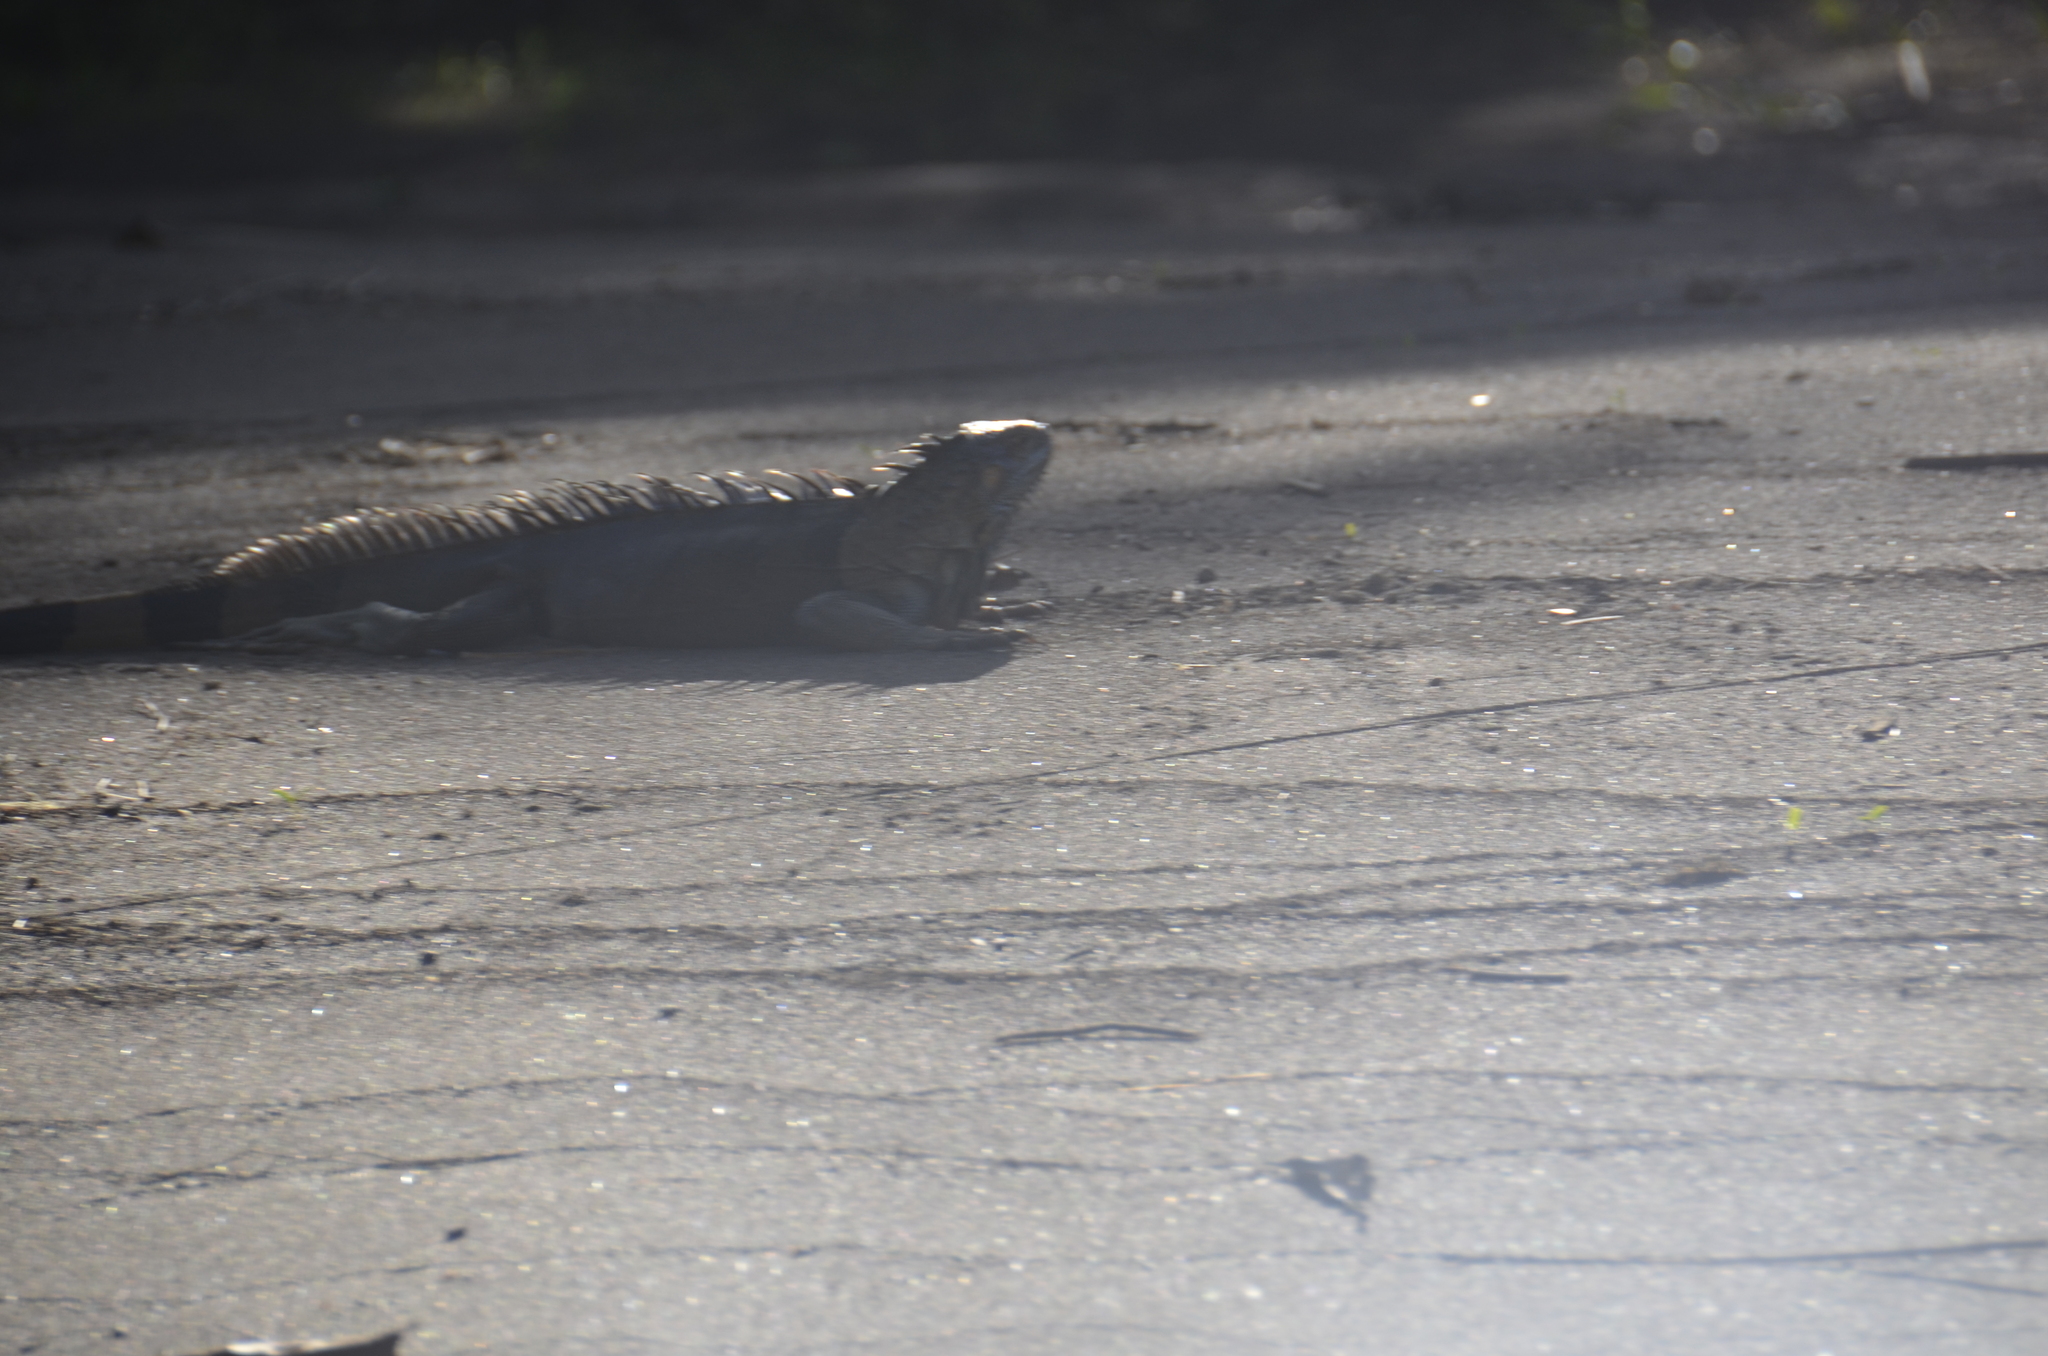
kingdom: Animalia
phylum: Chordata
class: Squamata
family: Iguanidae
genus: Iguana
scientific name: Iguana iguana
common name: Green iguana
